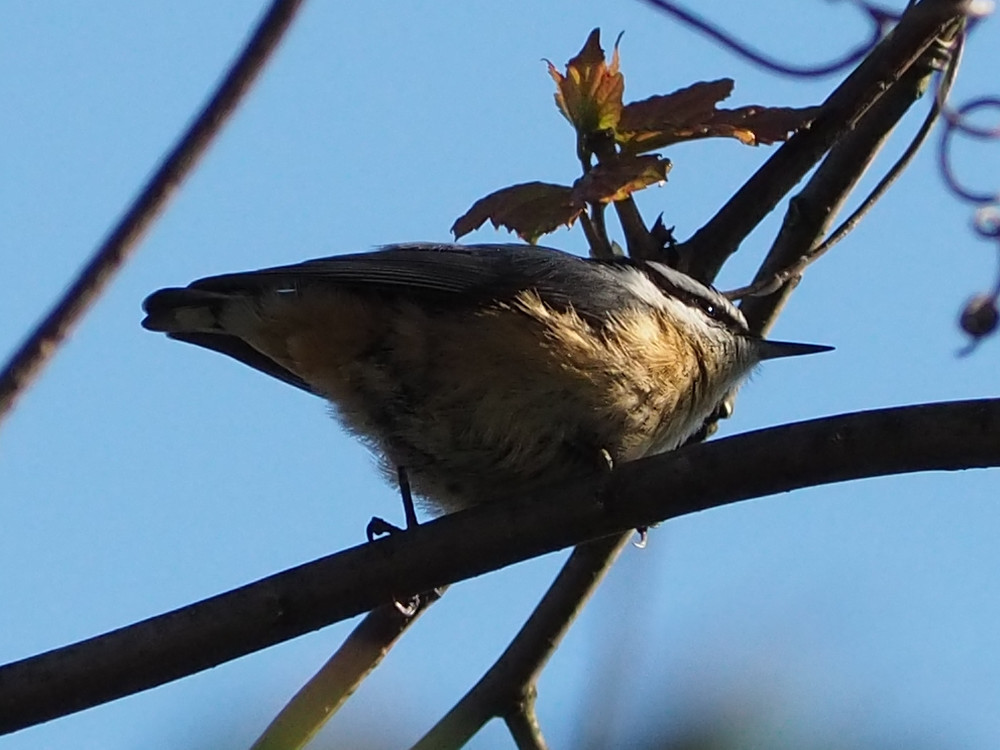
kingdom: Animalia
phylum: Chordata
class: Aves
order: Passeriformes
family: Sittidae
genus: Sitta
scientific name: Sitta canadensis
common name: Red-breasted nuthatch
